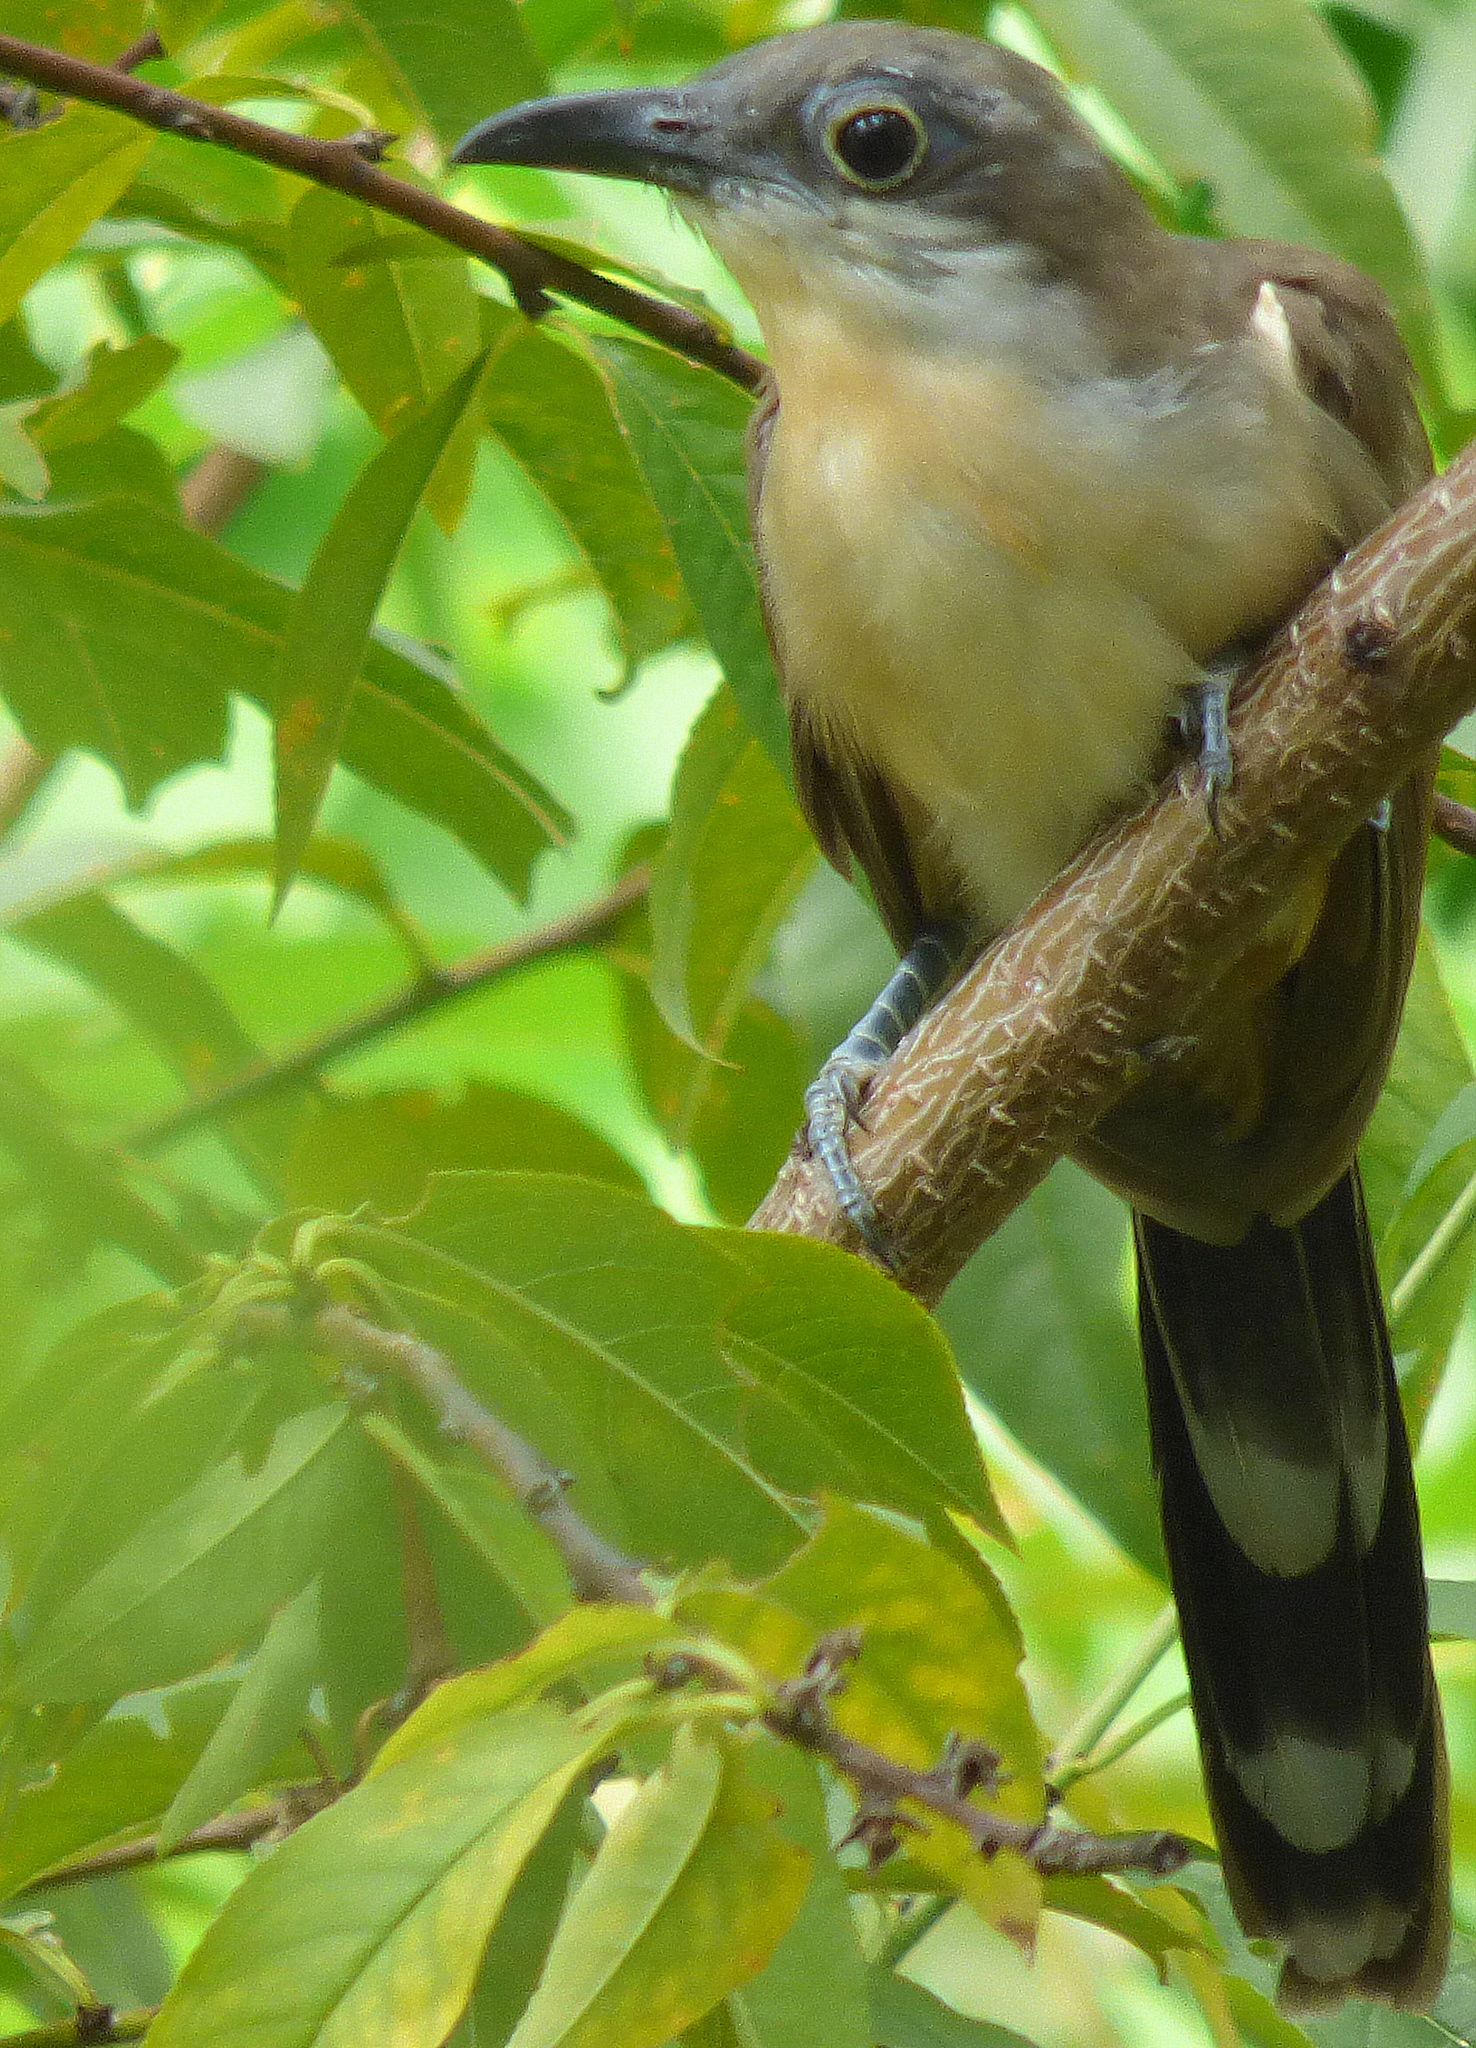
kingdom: Animalia
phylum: Chordata
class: Aves
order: Cuculiformes
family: Cuculidae
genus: Coccyzus
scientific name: Coccyzus melacoryphus
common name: Dark-billed cuckoo
